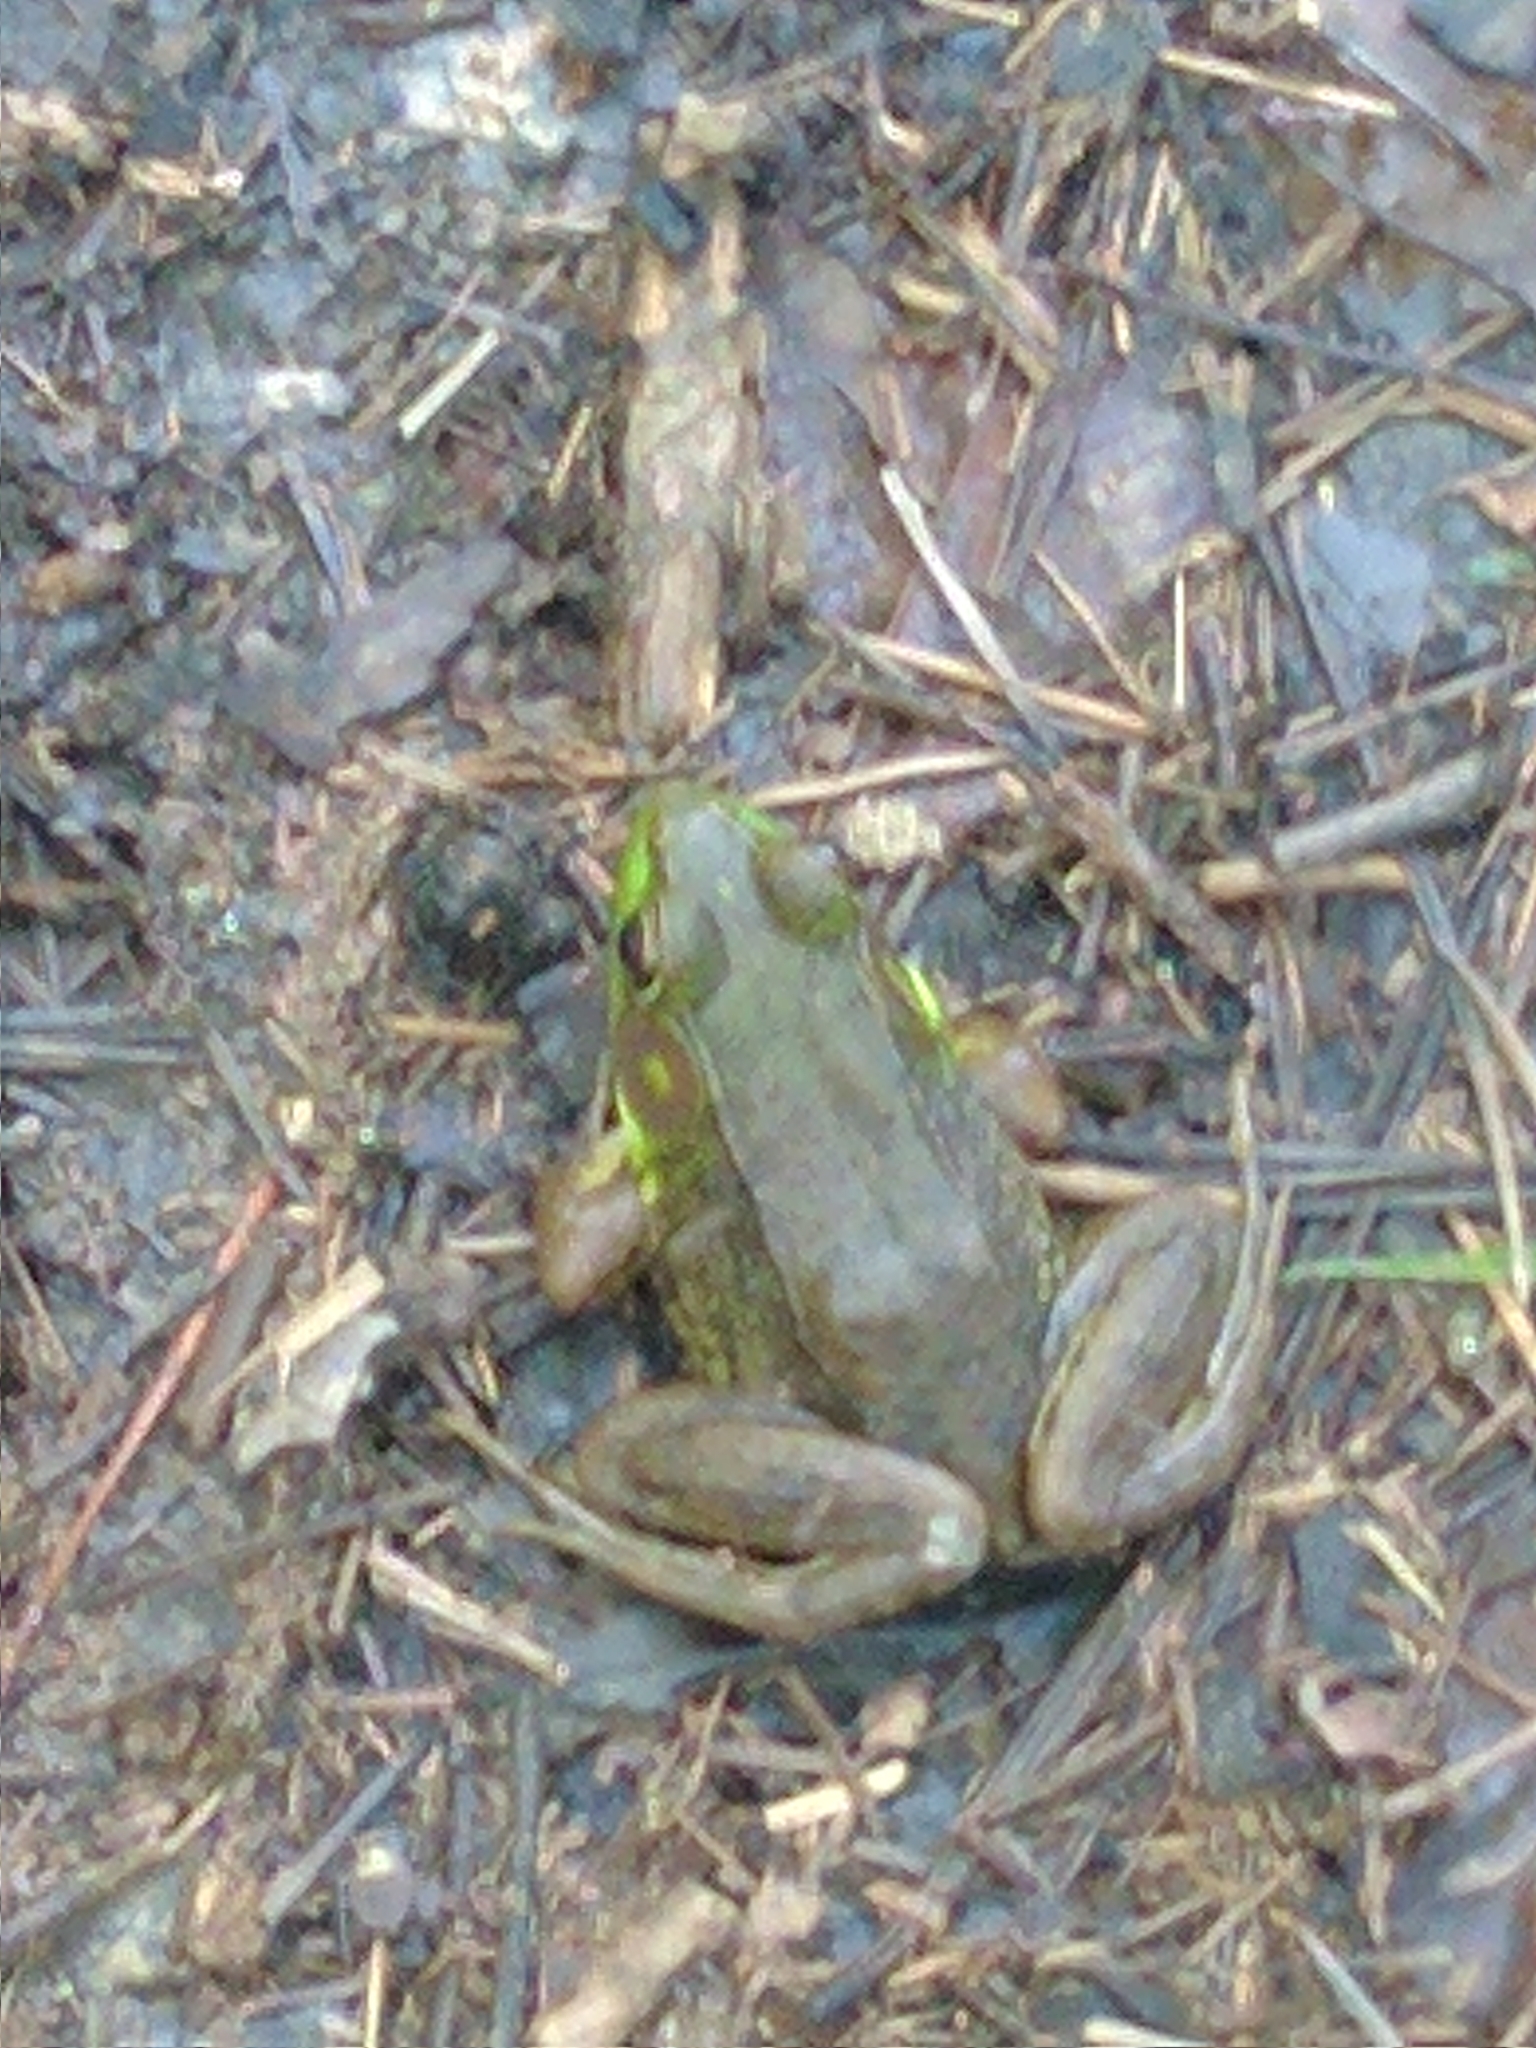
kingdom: Animalia
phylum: Chordata
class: Amphibia
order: Anura
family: Ranidae
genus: Lithobates
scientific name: Lithobates clamitans
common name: Green frog
